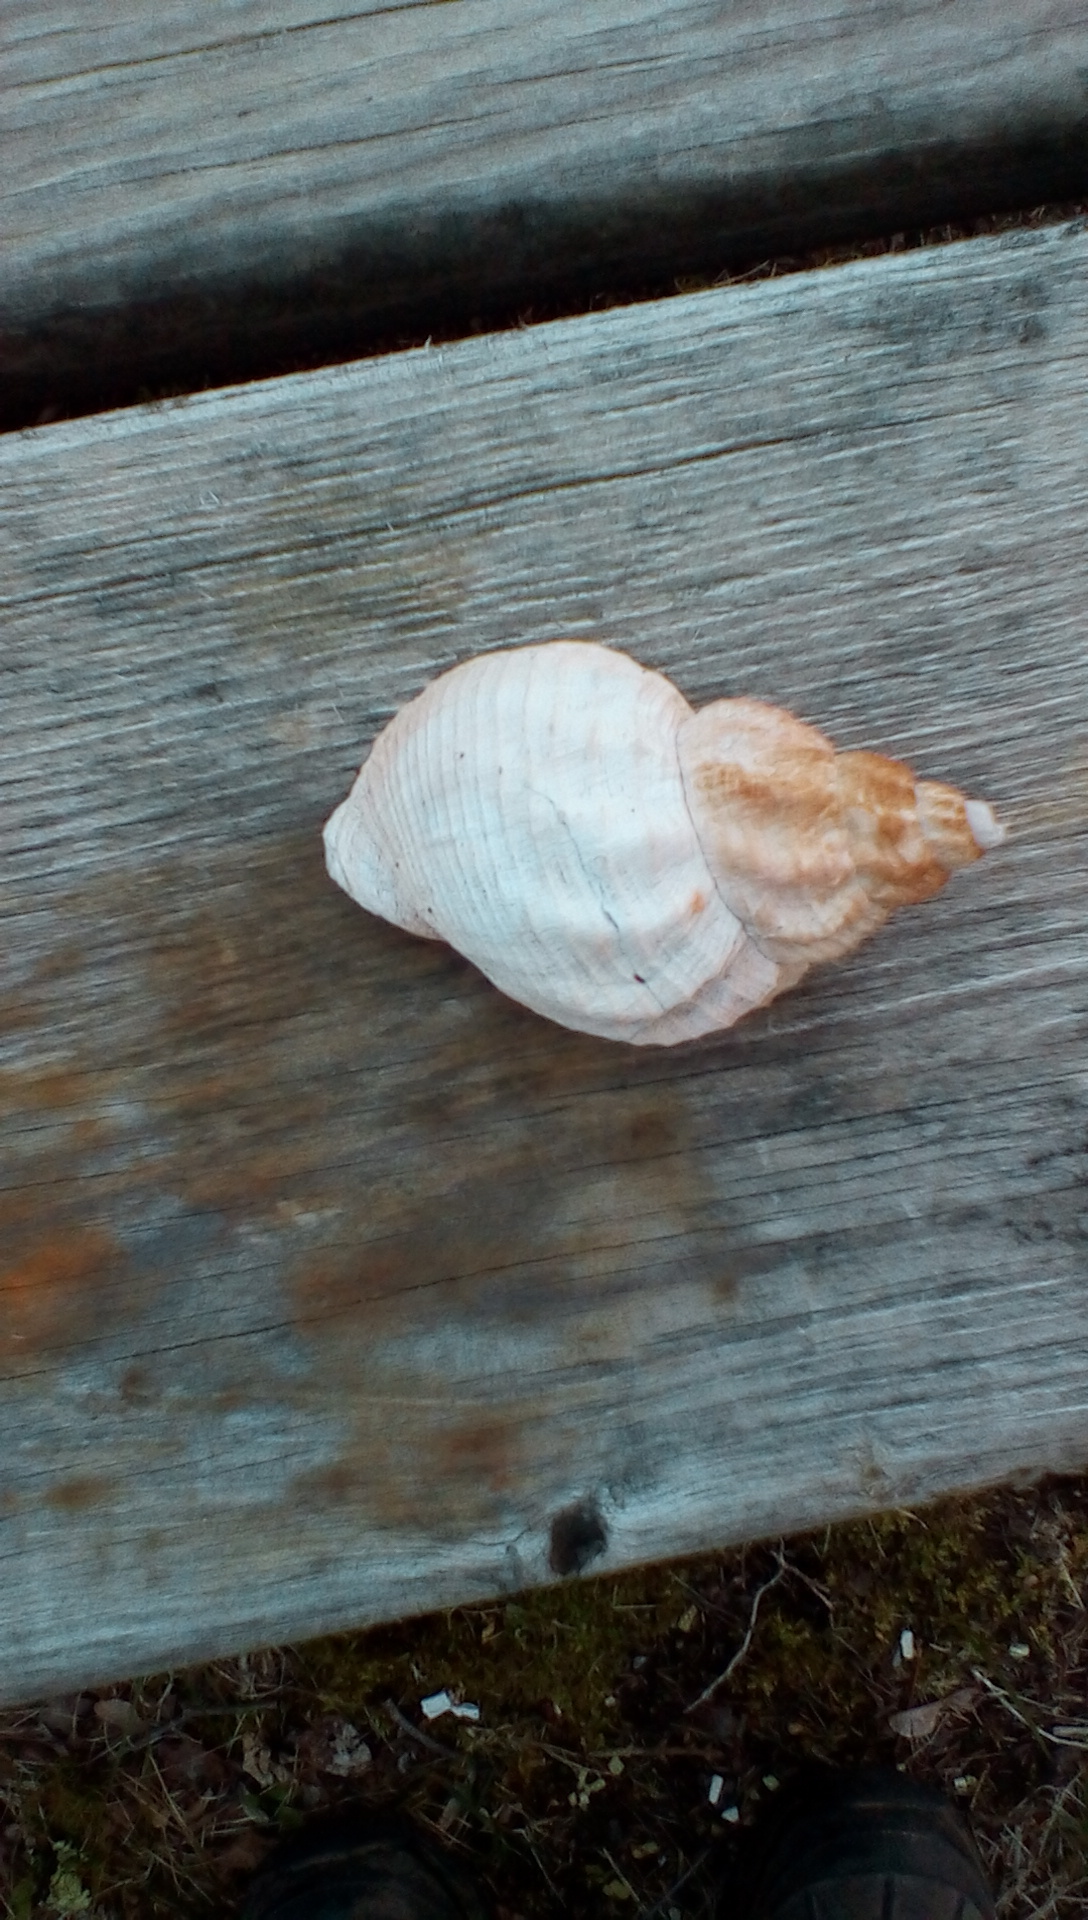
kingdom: Animalia
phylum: Mollusca
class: Gastropoda
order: Neogastropoda
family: Buccinidae
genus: Buccinum
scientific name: Buccinum undatum
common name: Common whelk
